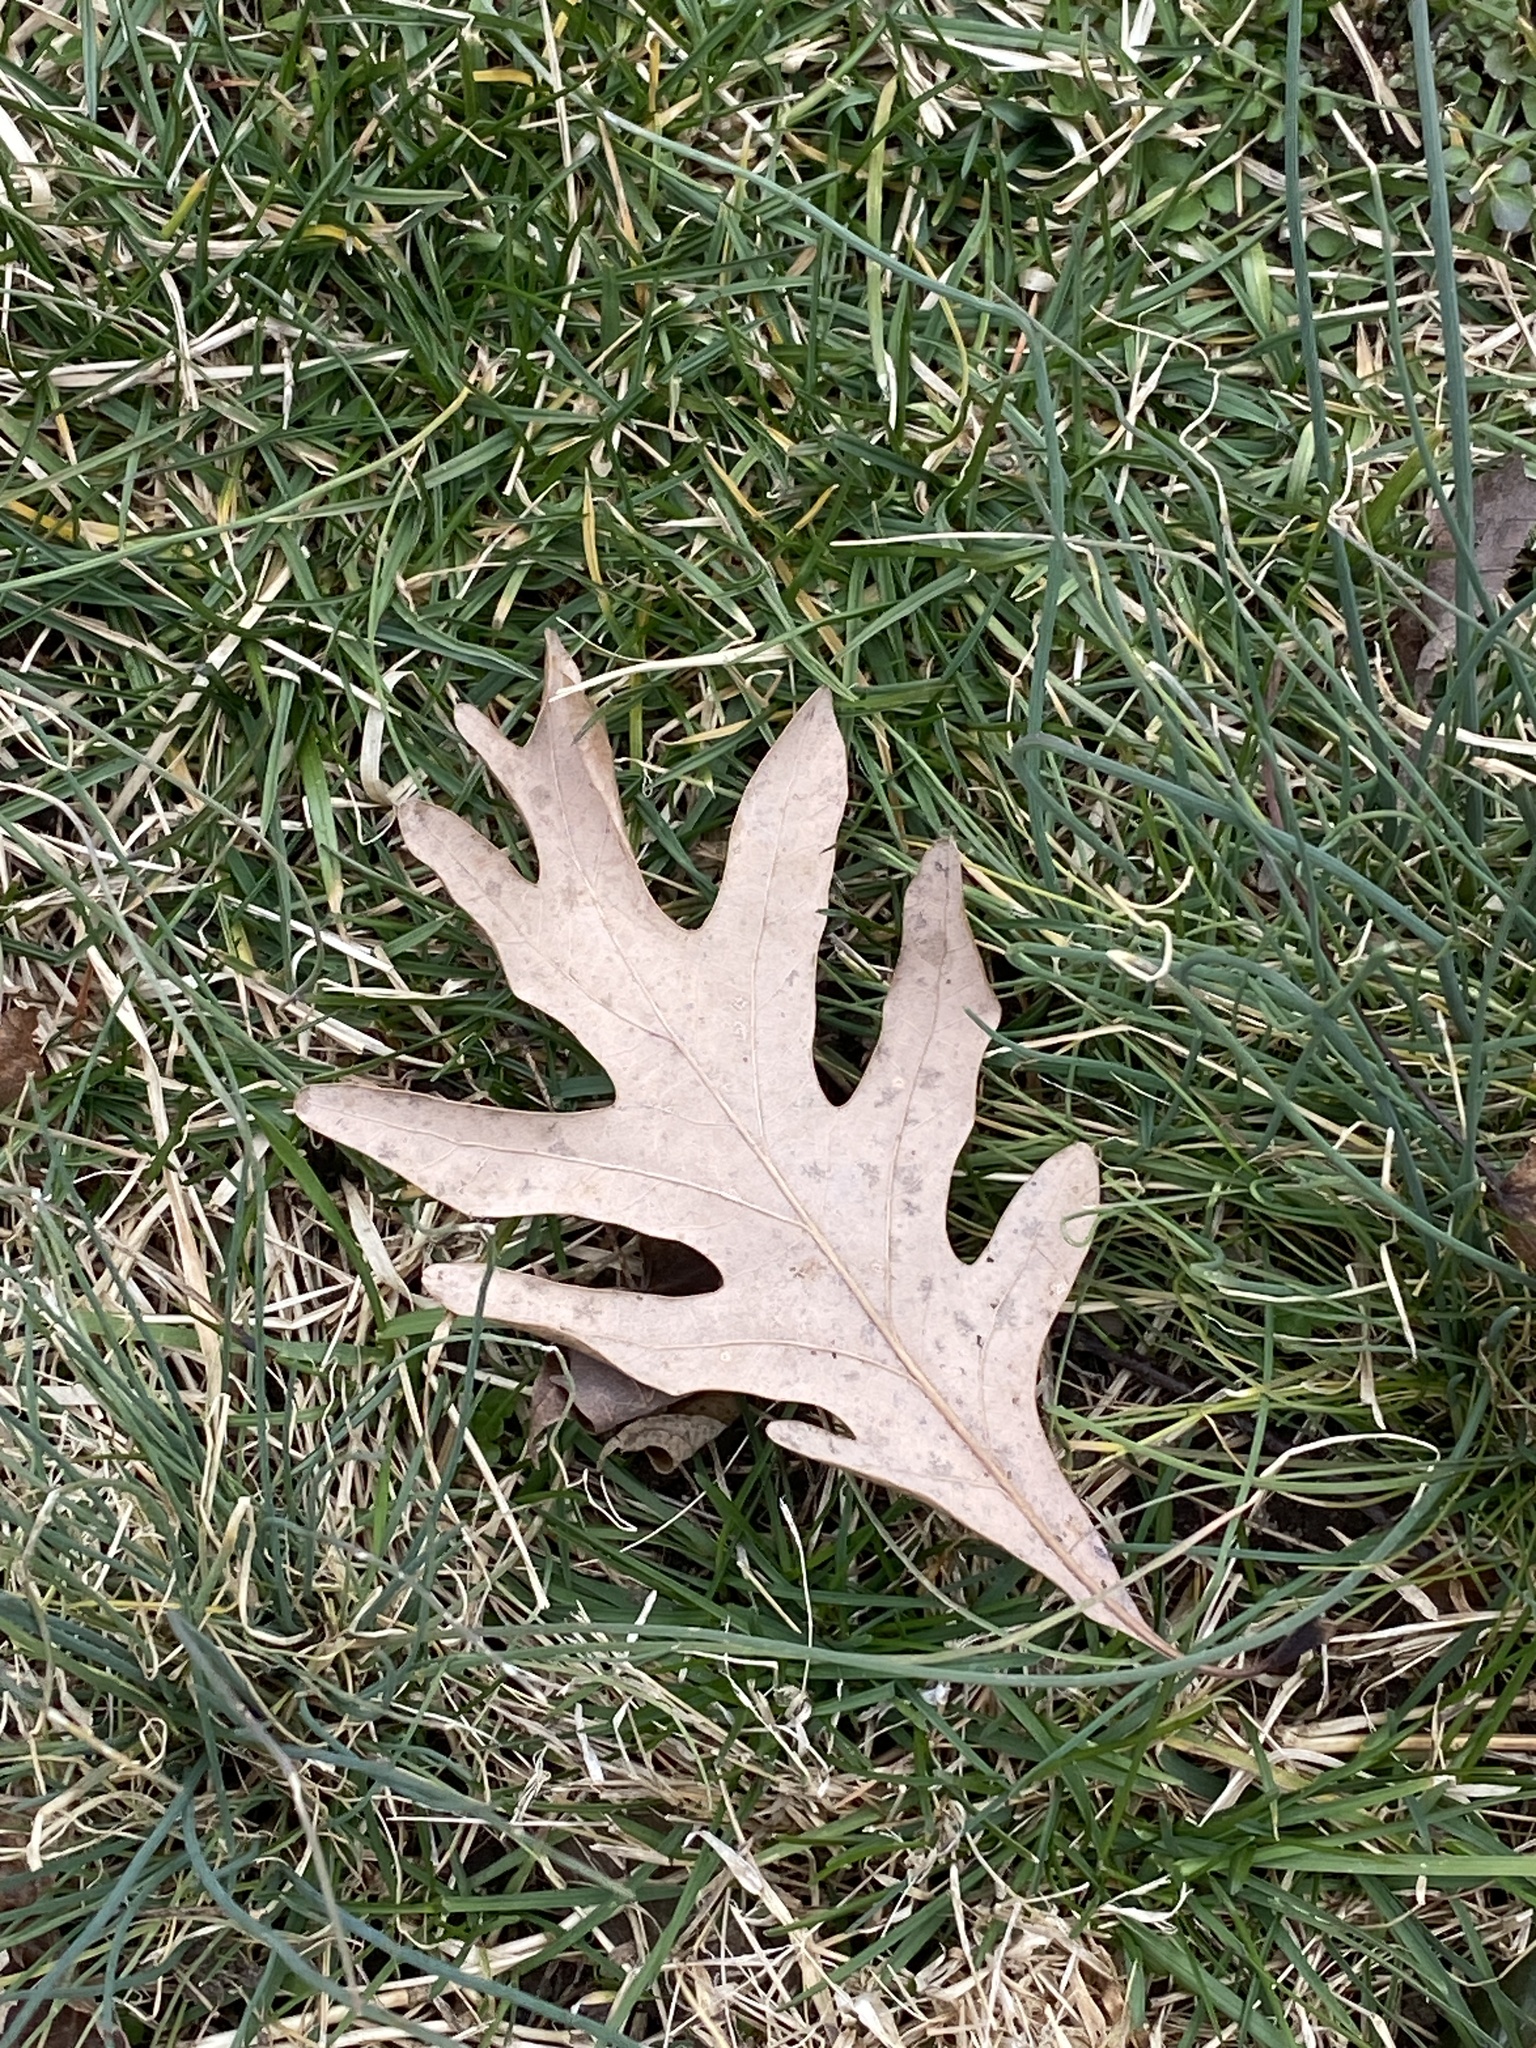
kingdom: Plantae
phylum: Tracheophyta
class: Magnoliopsida
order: Fagales
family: Fagaceae
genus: Quercus
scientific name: Quercus alba
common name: White oak
